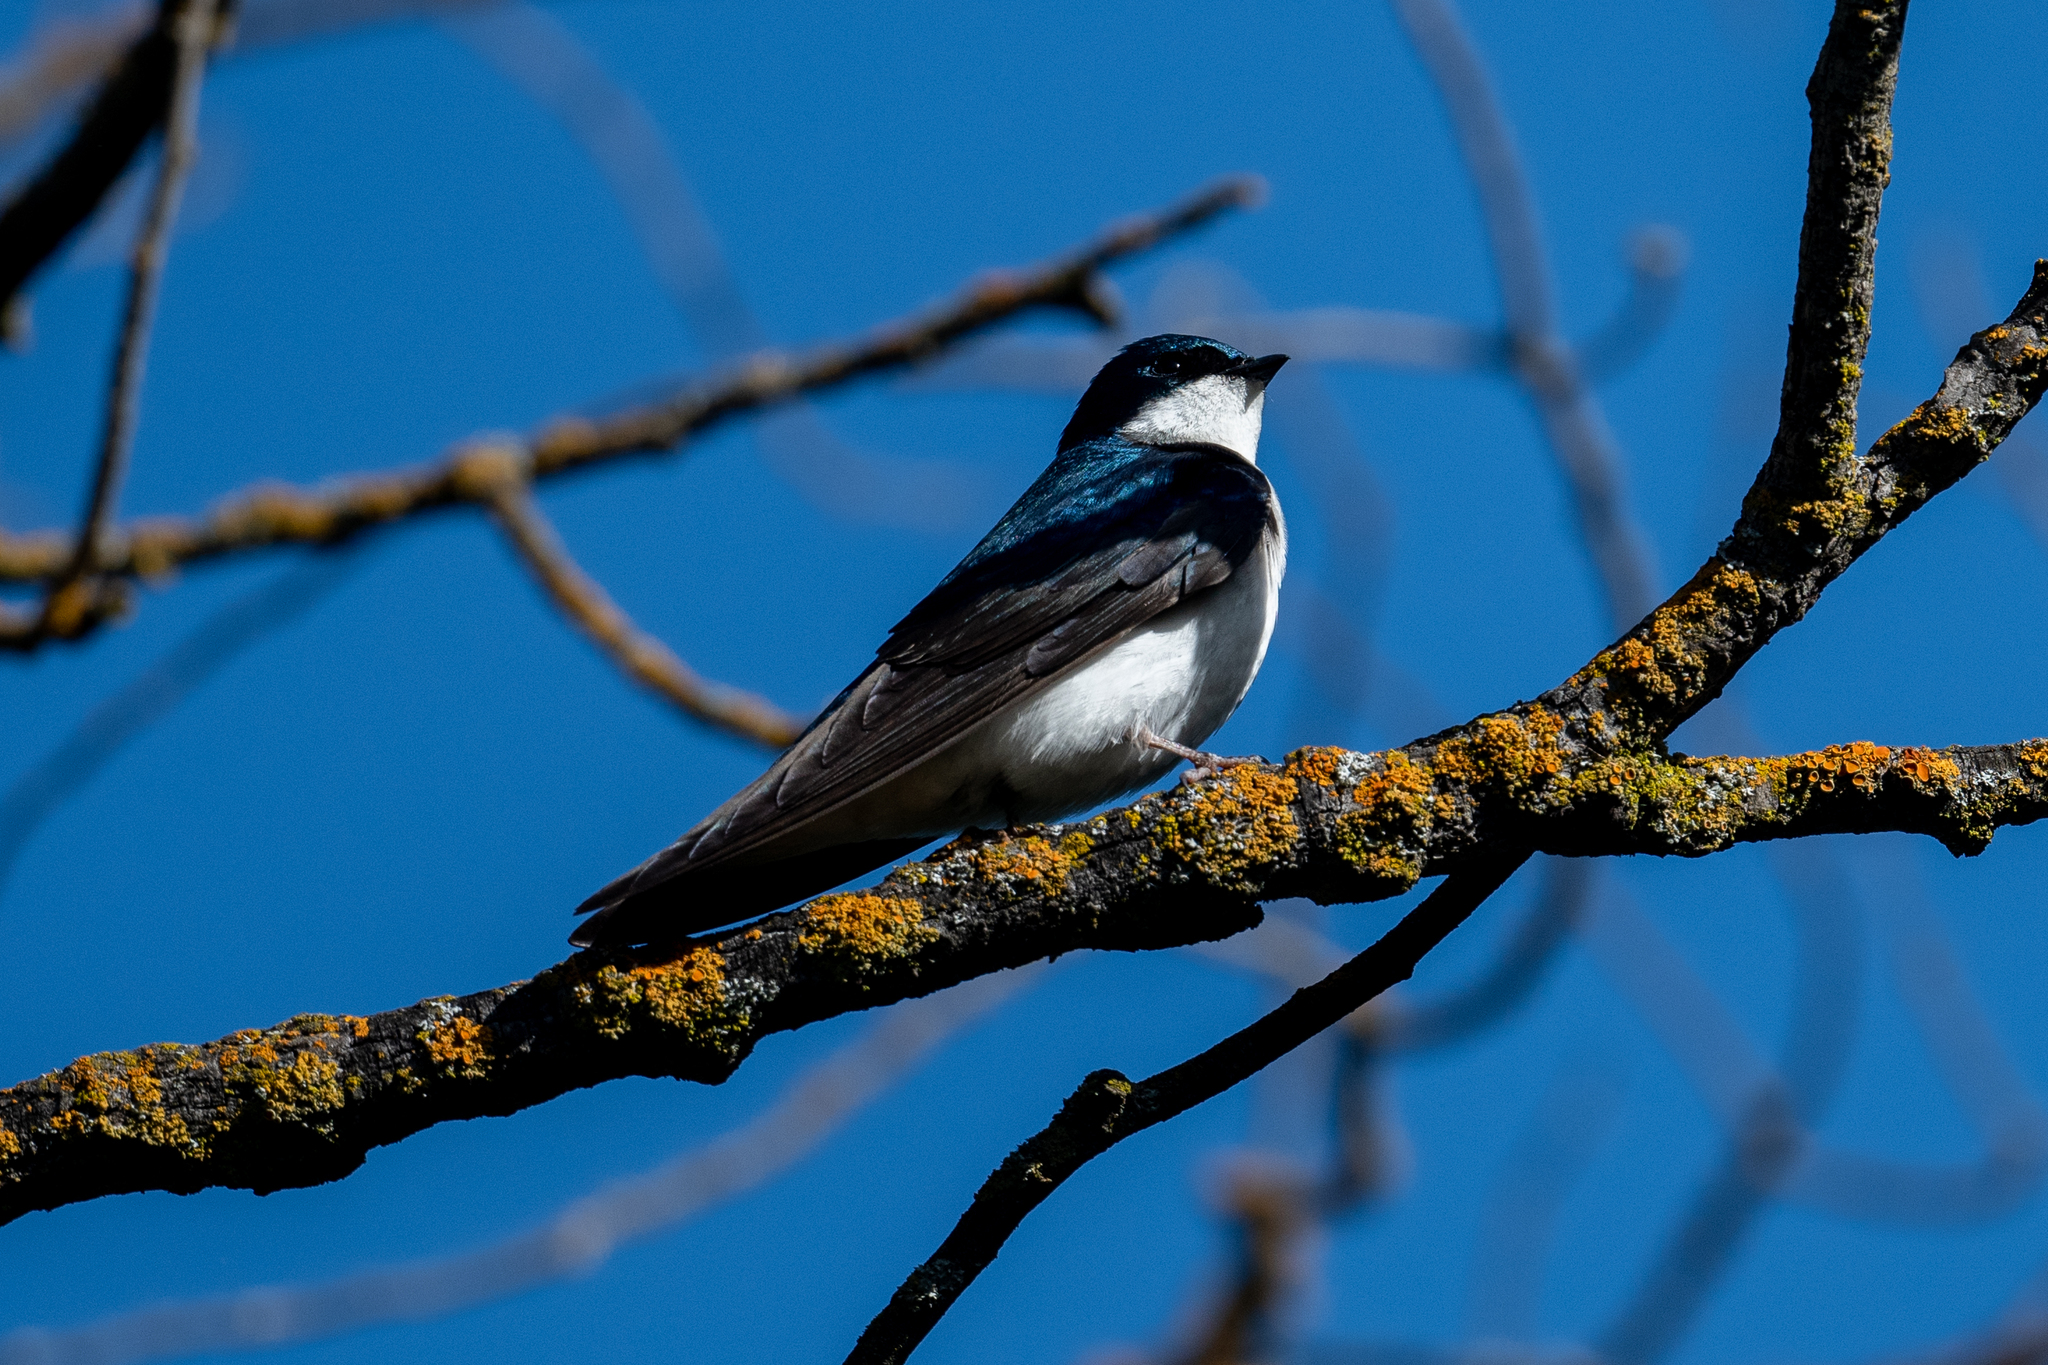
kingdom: Animalia
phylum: Chordata
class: Aves
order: Passeriformes
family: Hirundinidae
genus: Tachycineta
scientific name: Tachycineta bicolor
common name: Tree swallow
